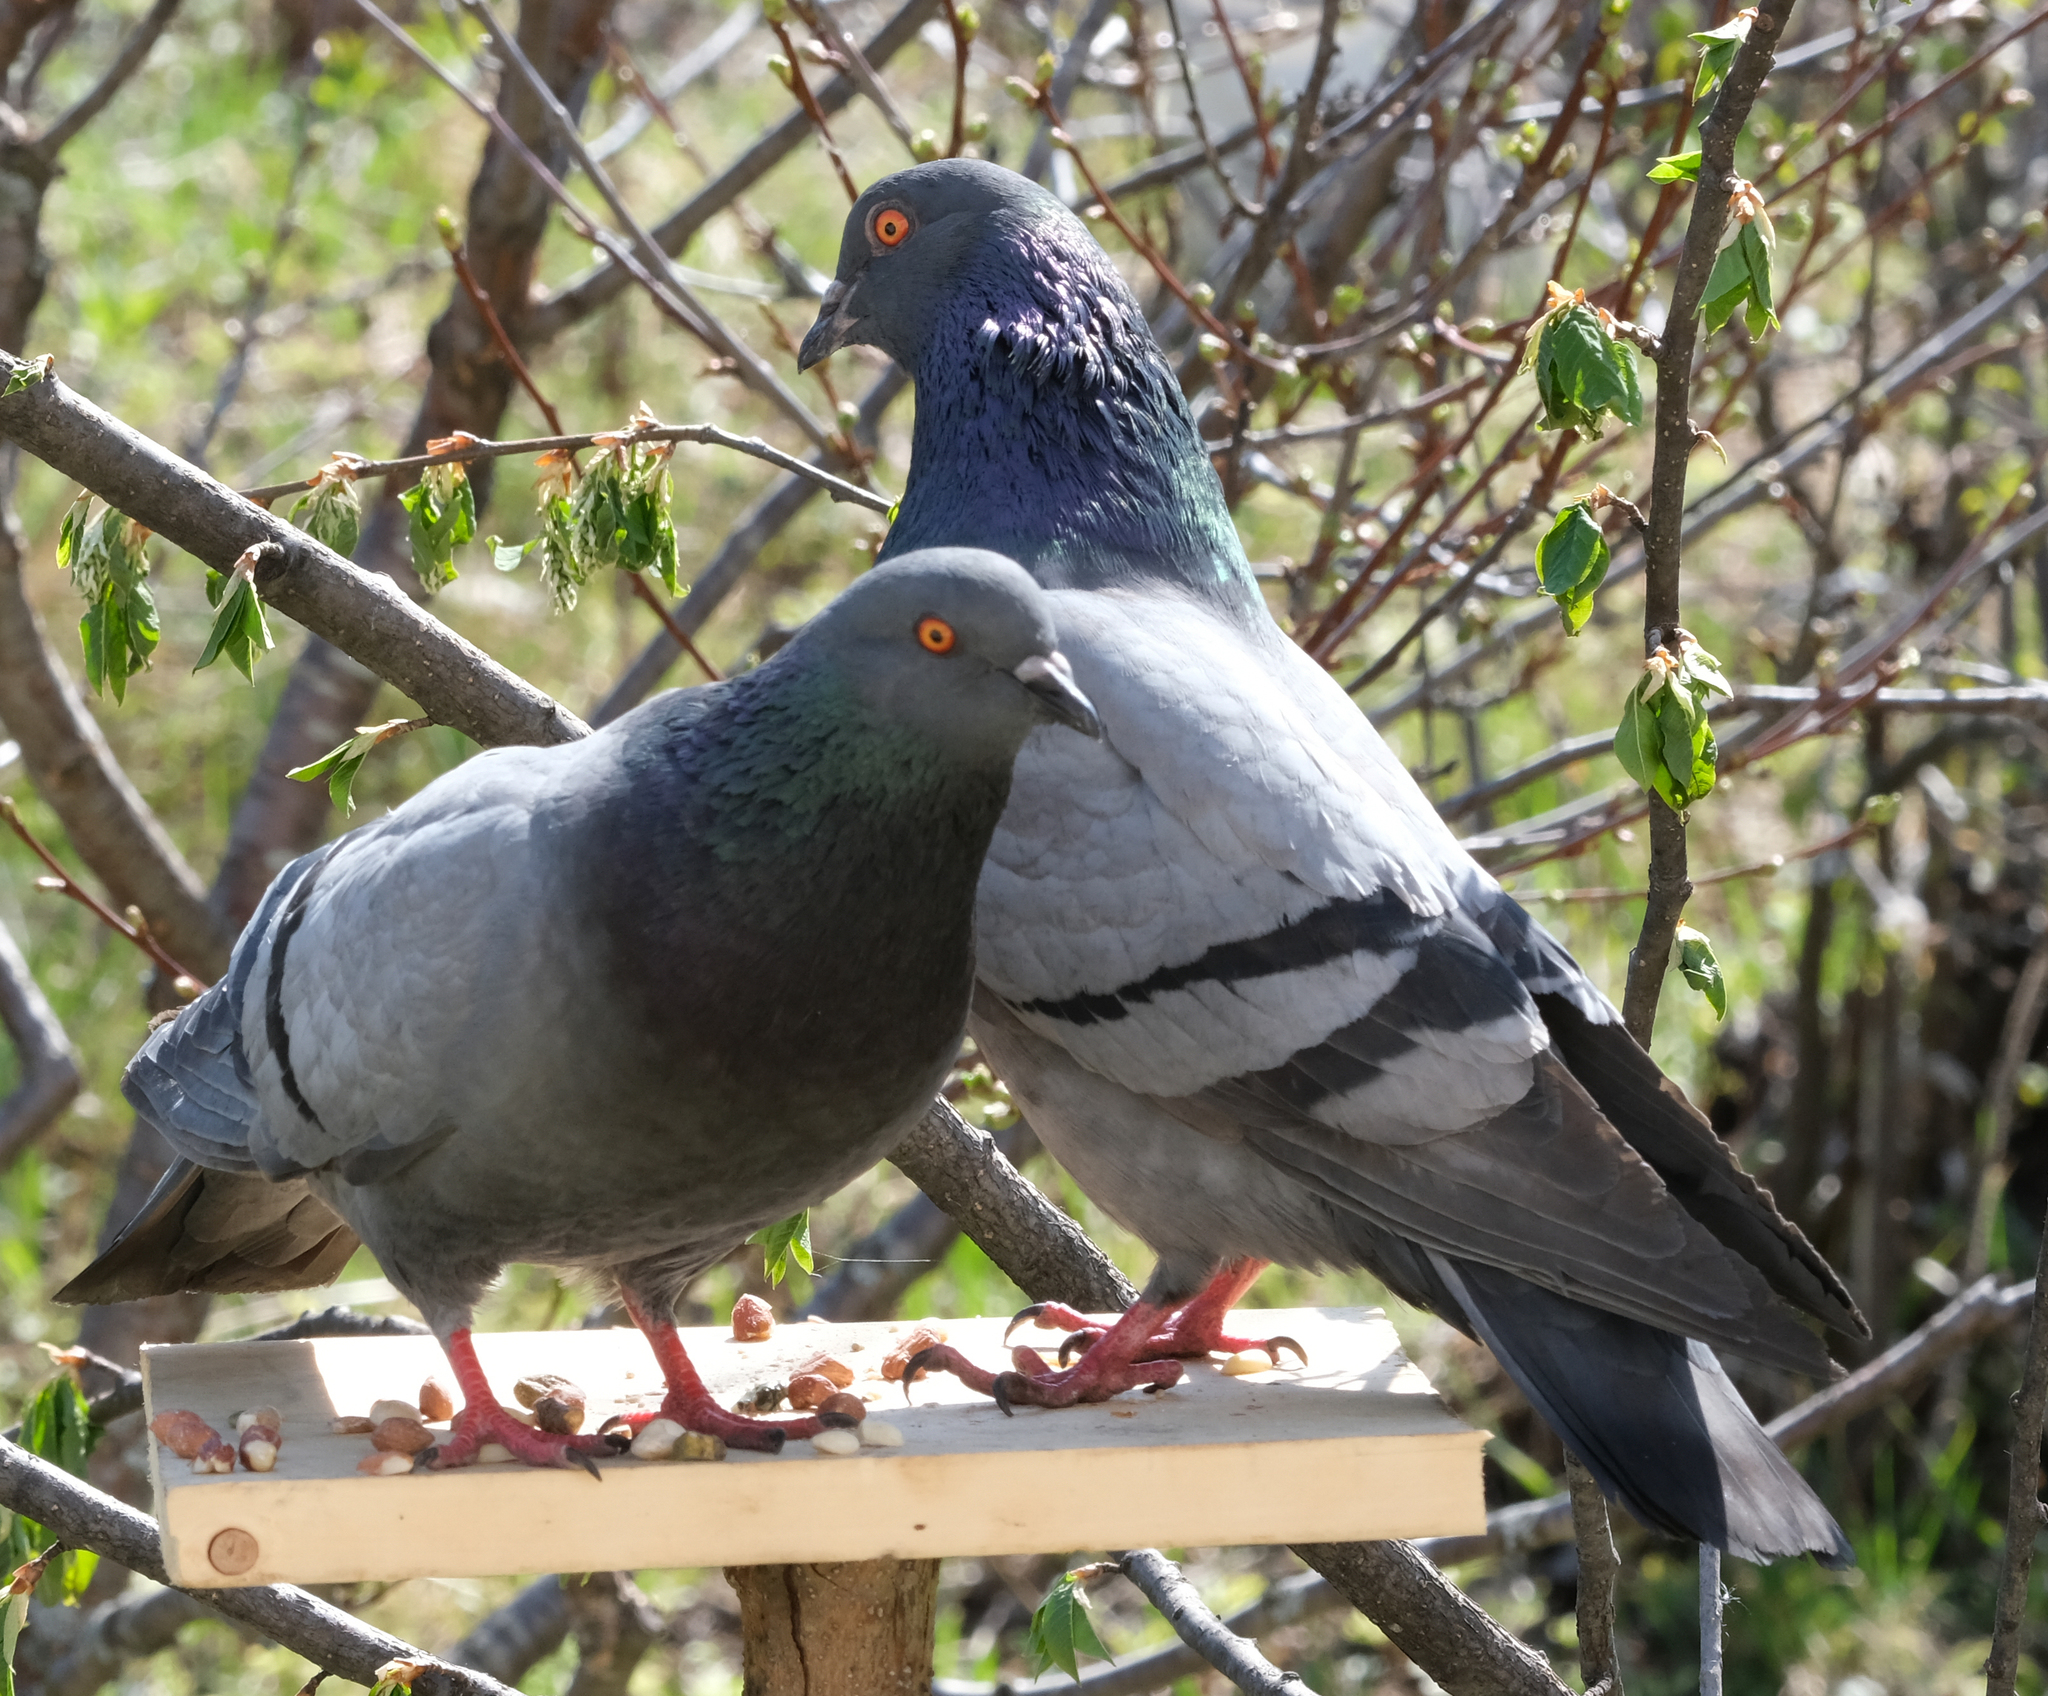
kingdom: Animalia
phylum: Chordata
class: Aves
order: Columbiformes
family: Columbidae
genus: Columba
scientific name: Columba livia
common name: Rock pigeon
